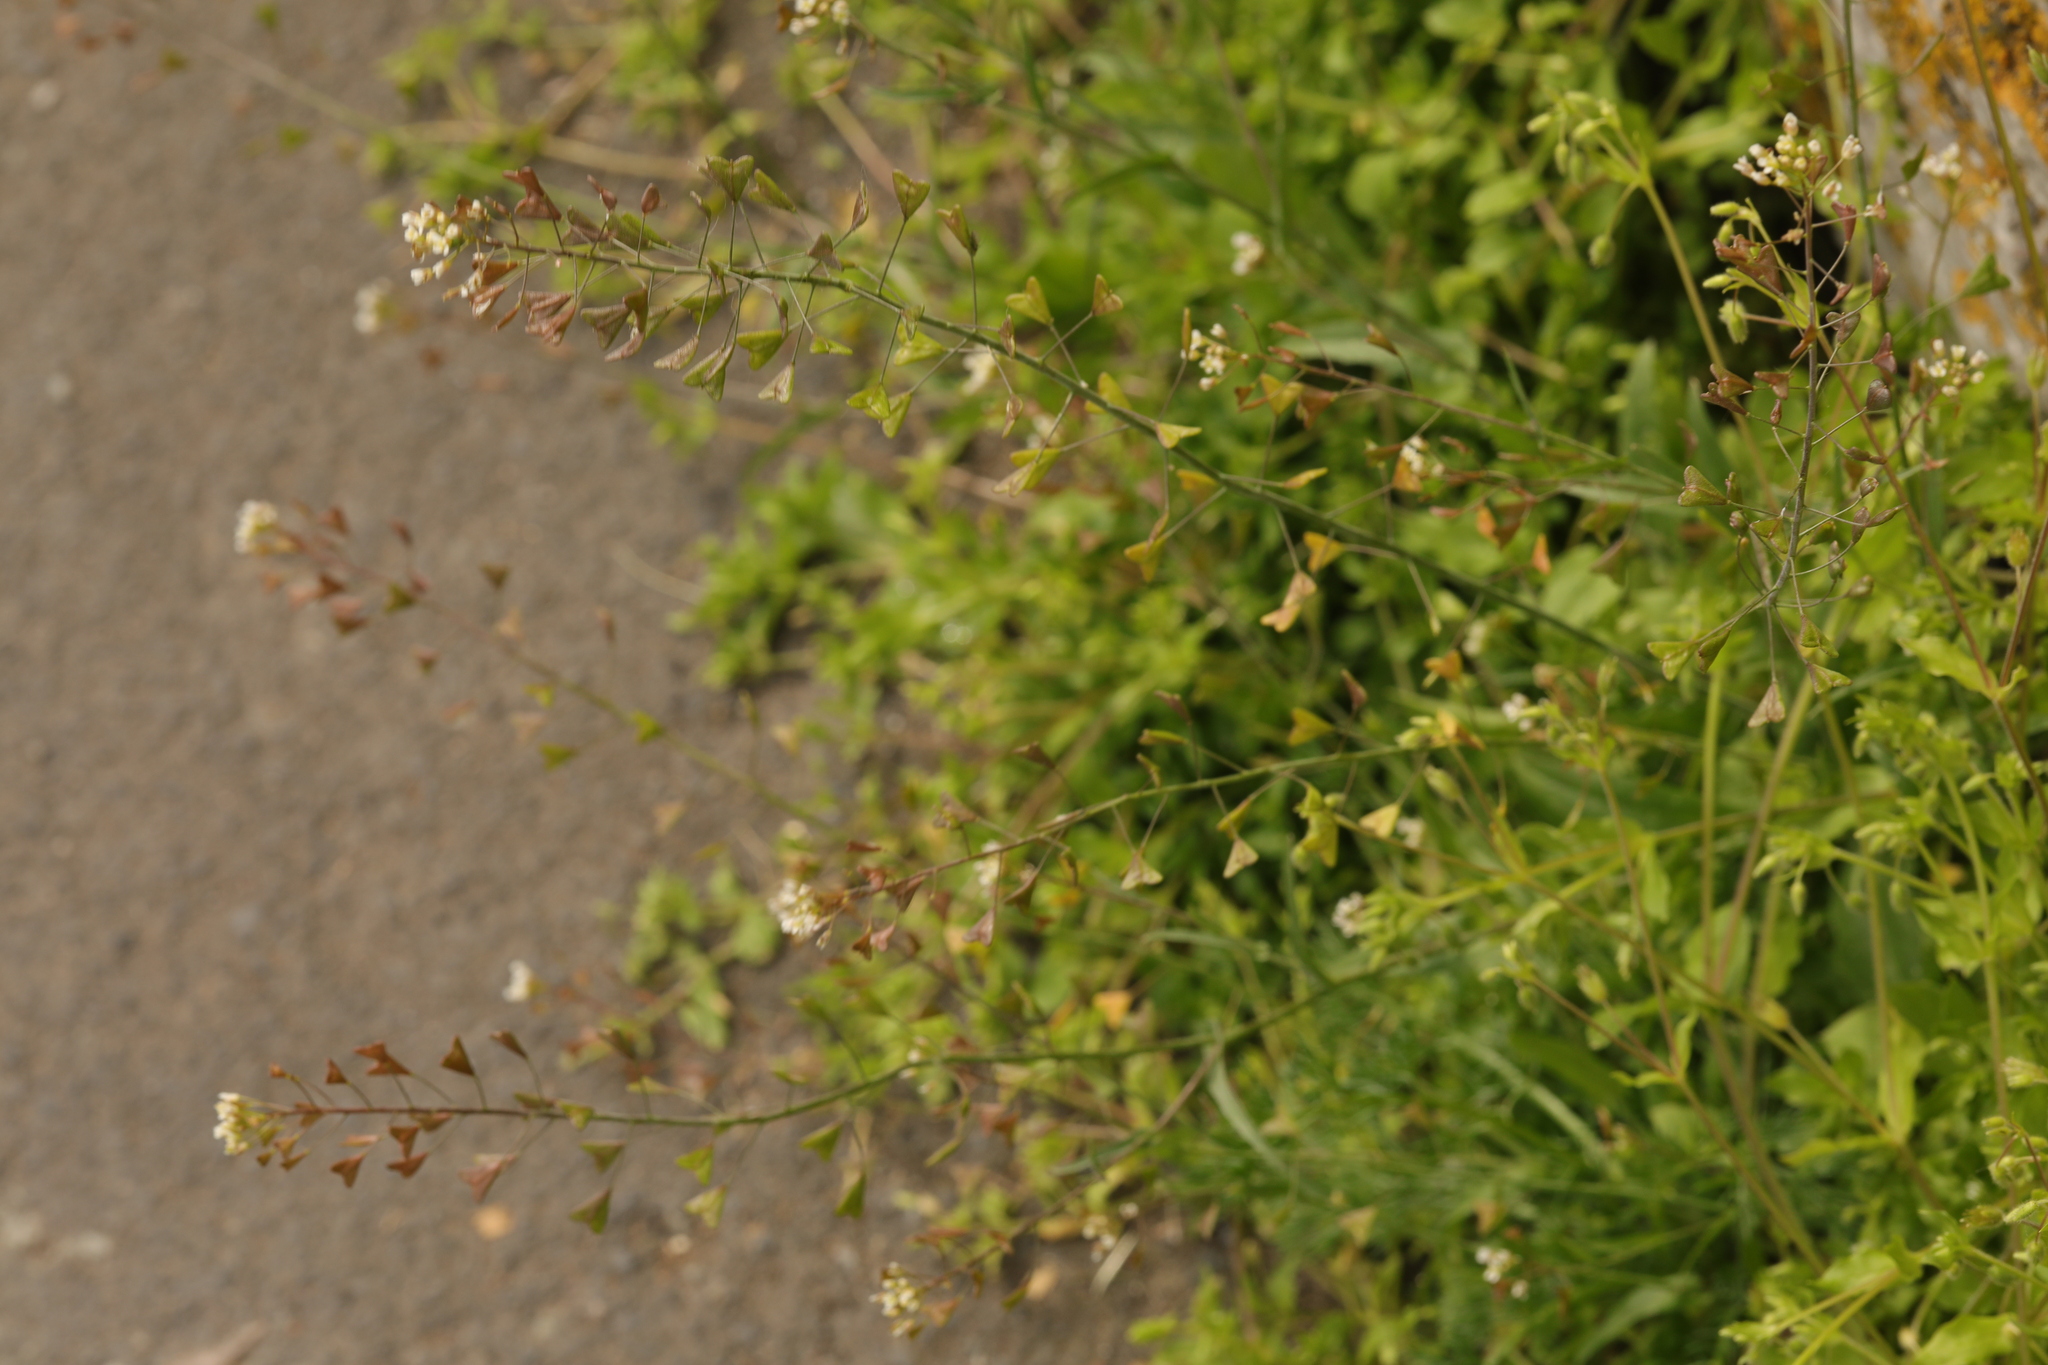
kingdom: Plantae
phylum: Tracheophyta
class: Magnoliopsida
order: Brassicales
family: Brassicaceae
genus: Capsella
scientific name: Capsella bursa-pastoris
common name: Shepherd's purse
